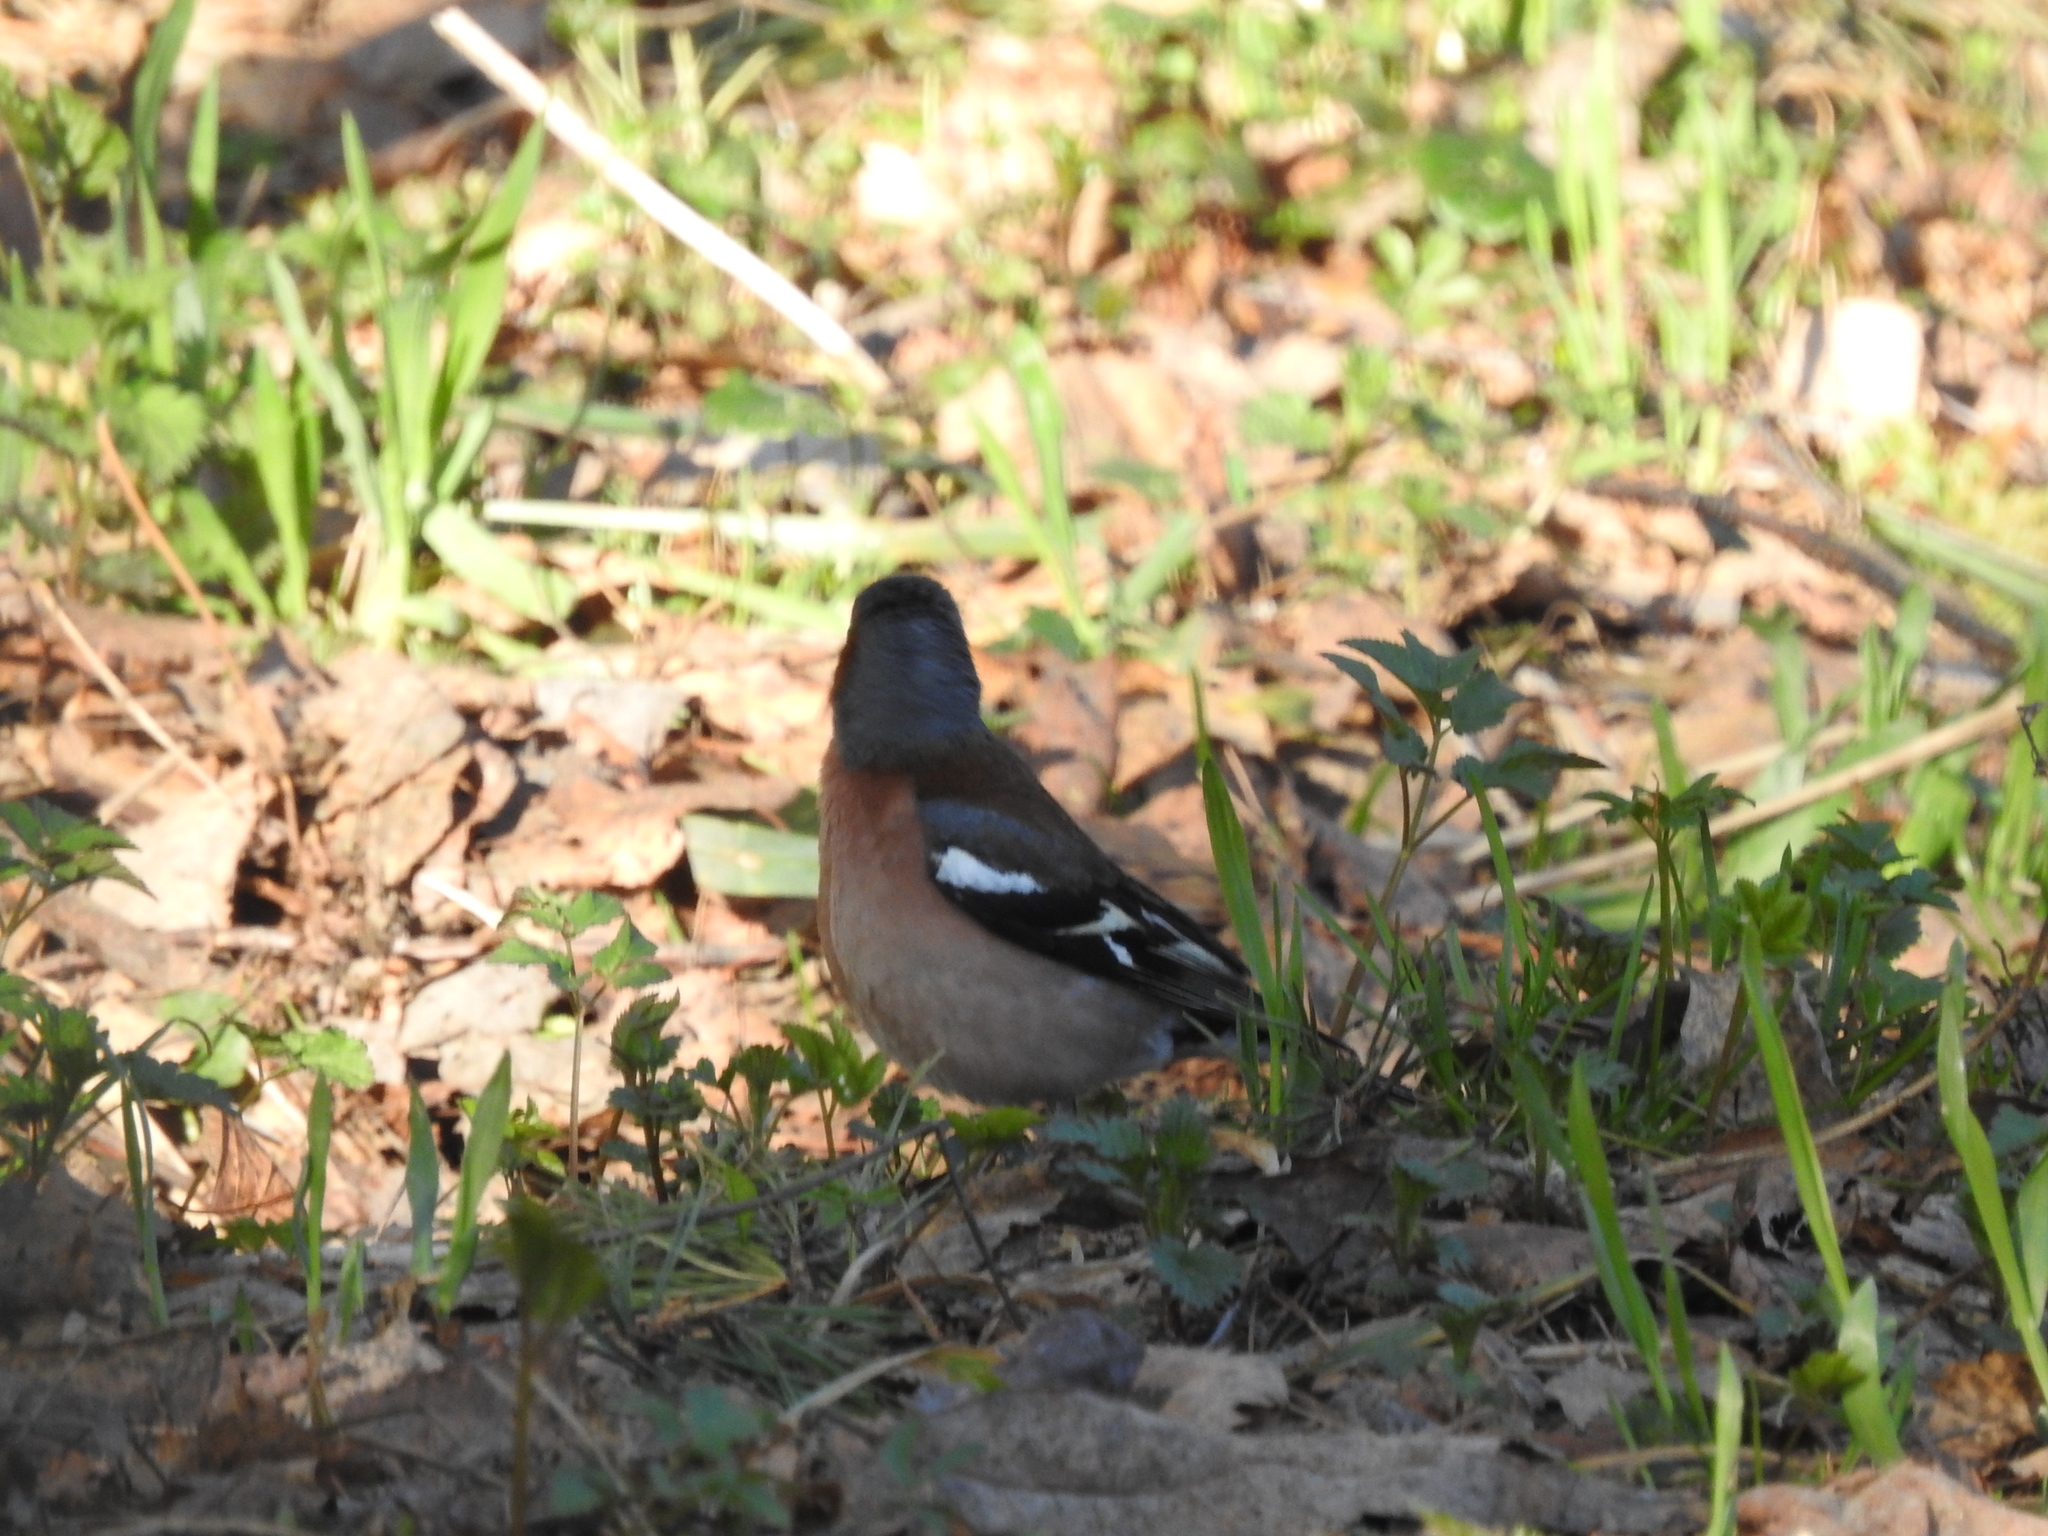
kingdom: Animalia
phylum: Chordata
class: Aves
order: Passeriformes
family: Fringillidae
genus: Fringilla
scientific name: Fringilla coelebs
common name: Common chaffinch
